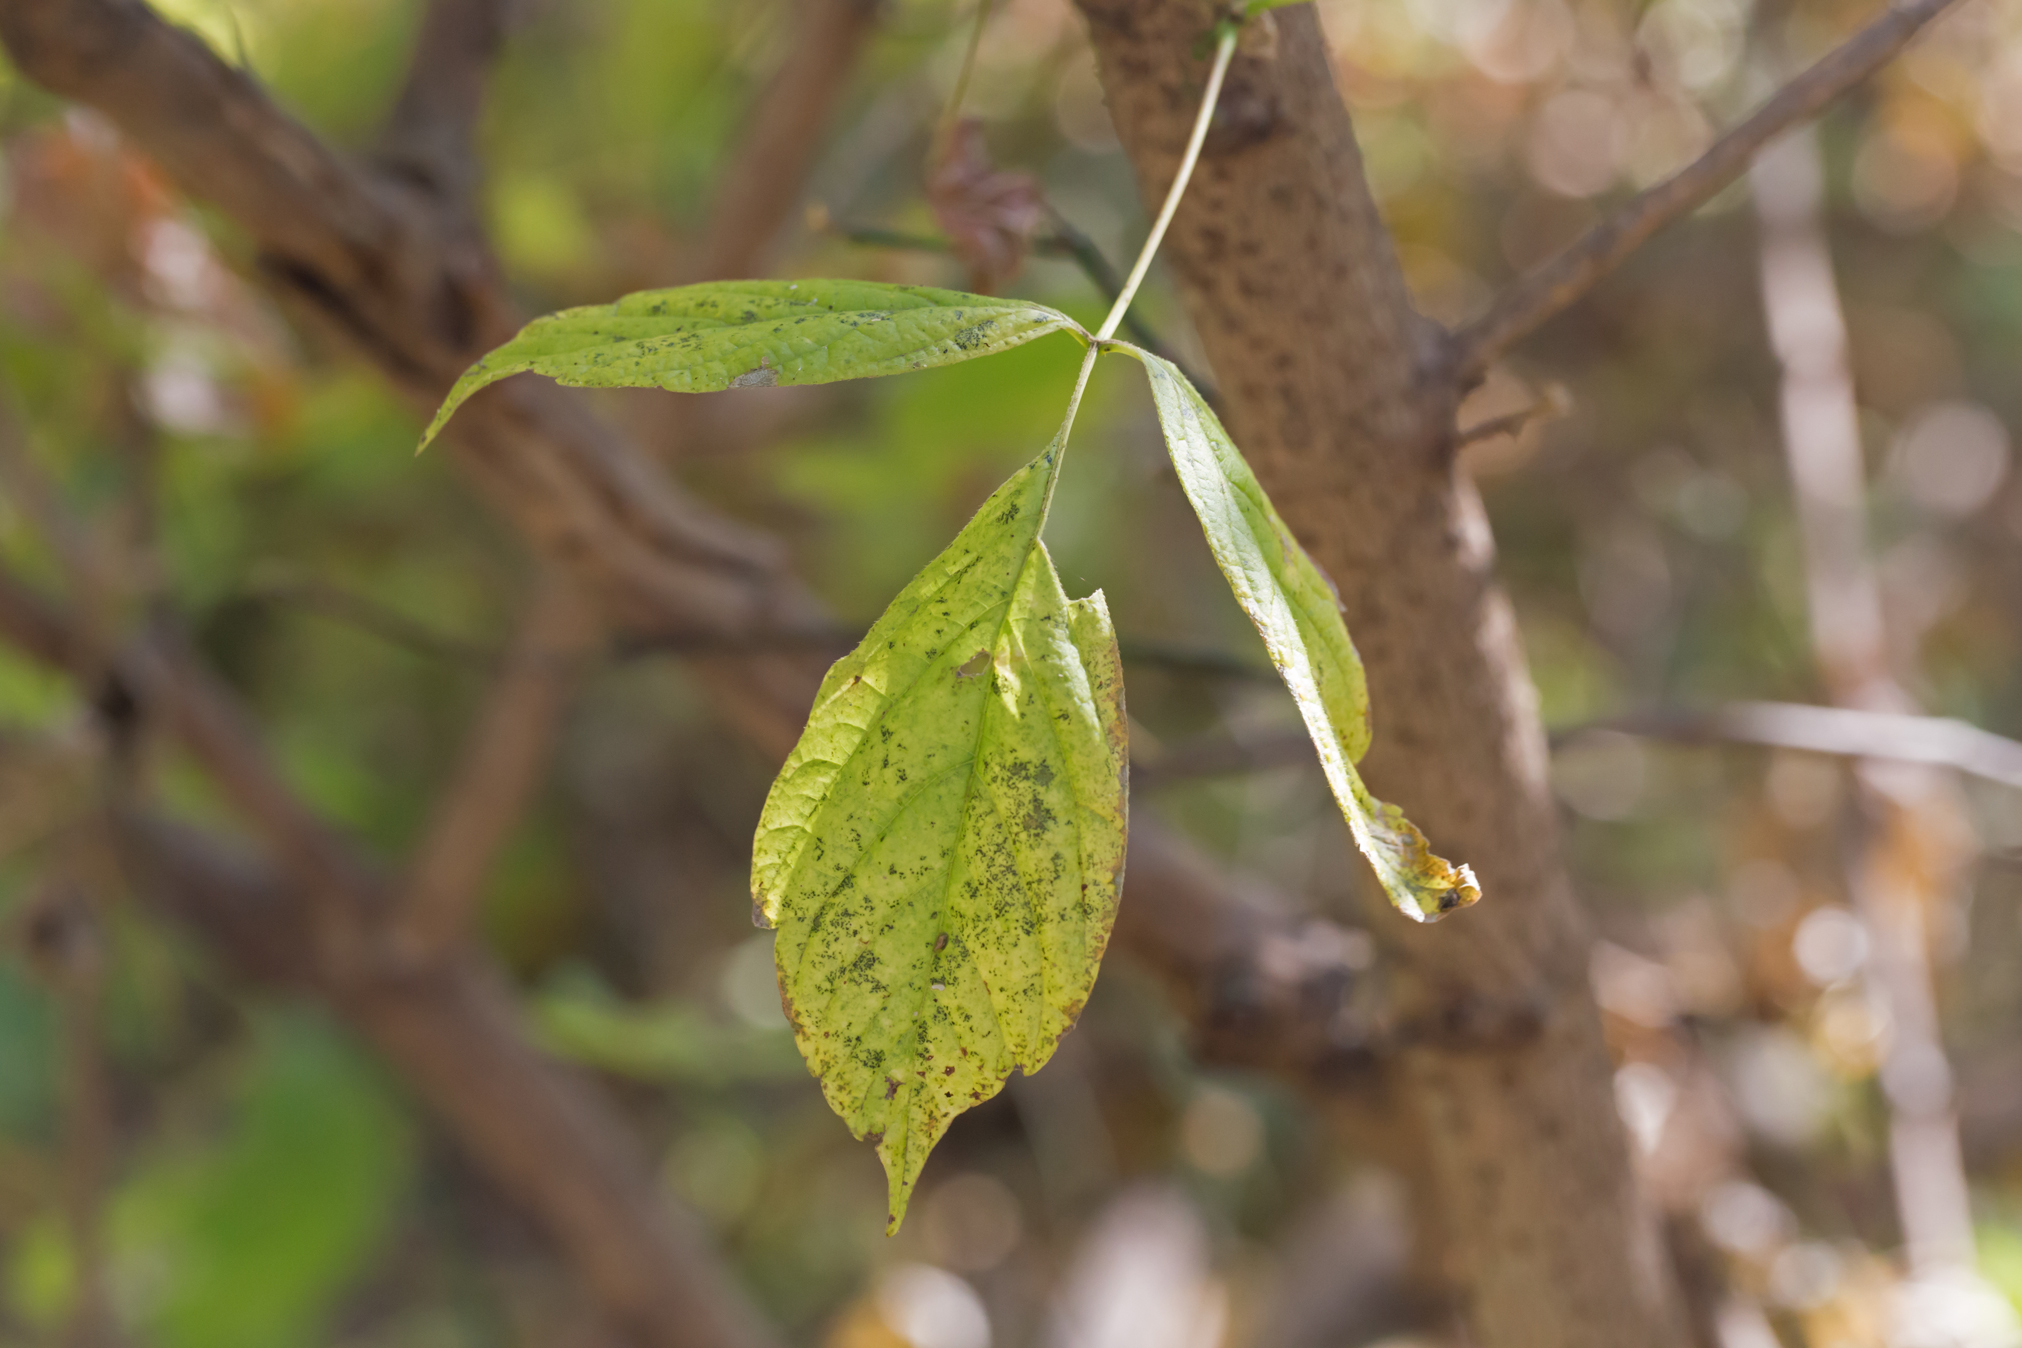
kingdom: Plantae
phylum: Tracheophyta
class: Magnoliopsida
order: Sapindales
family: Sapindaceae
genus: Acer
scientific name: Acer negundo
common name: Ashleaf maple
